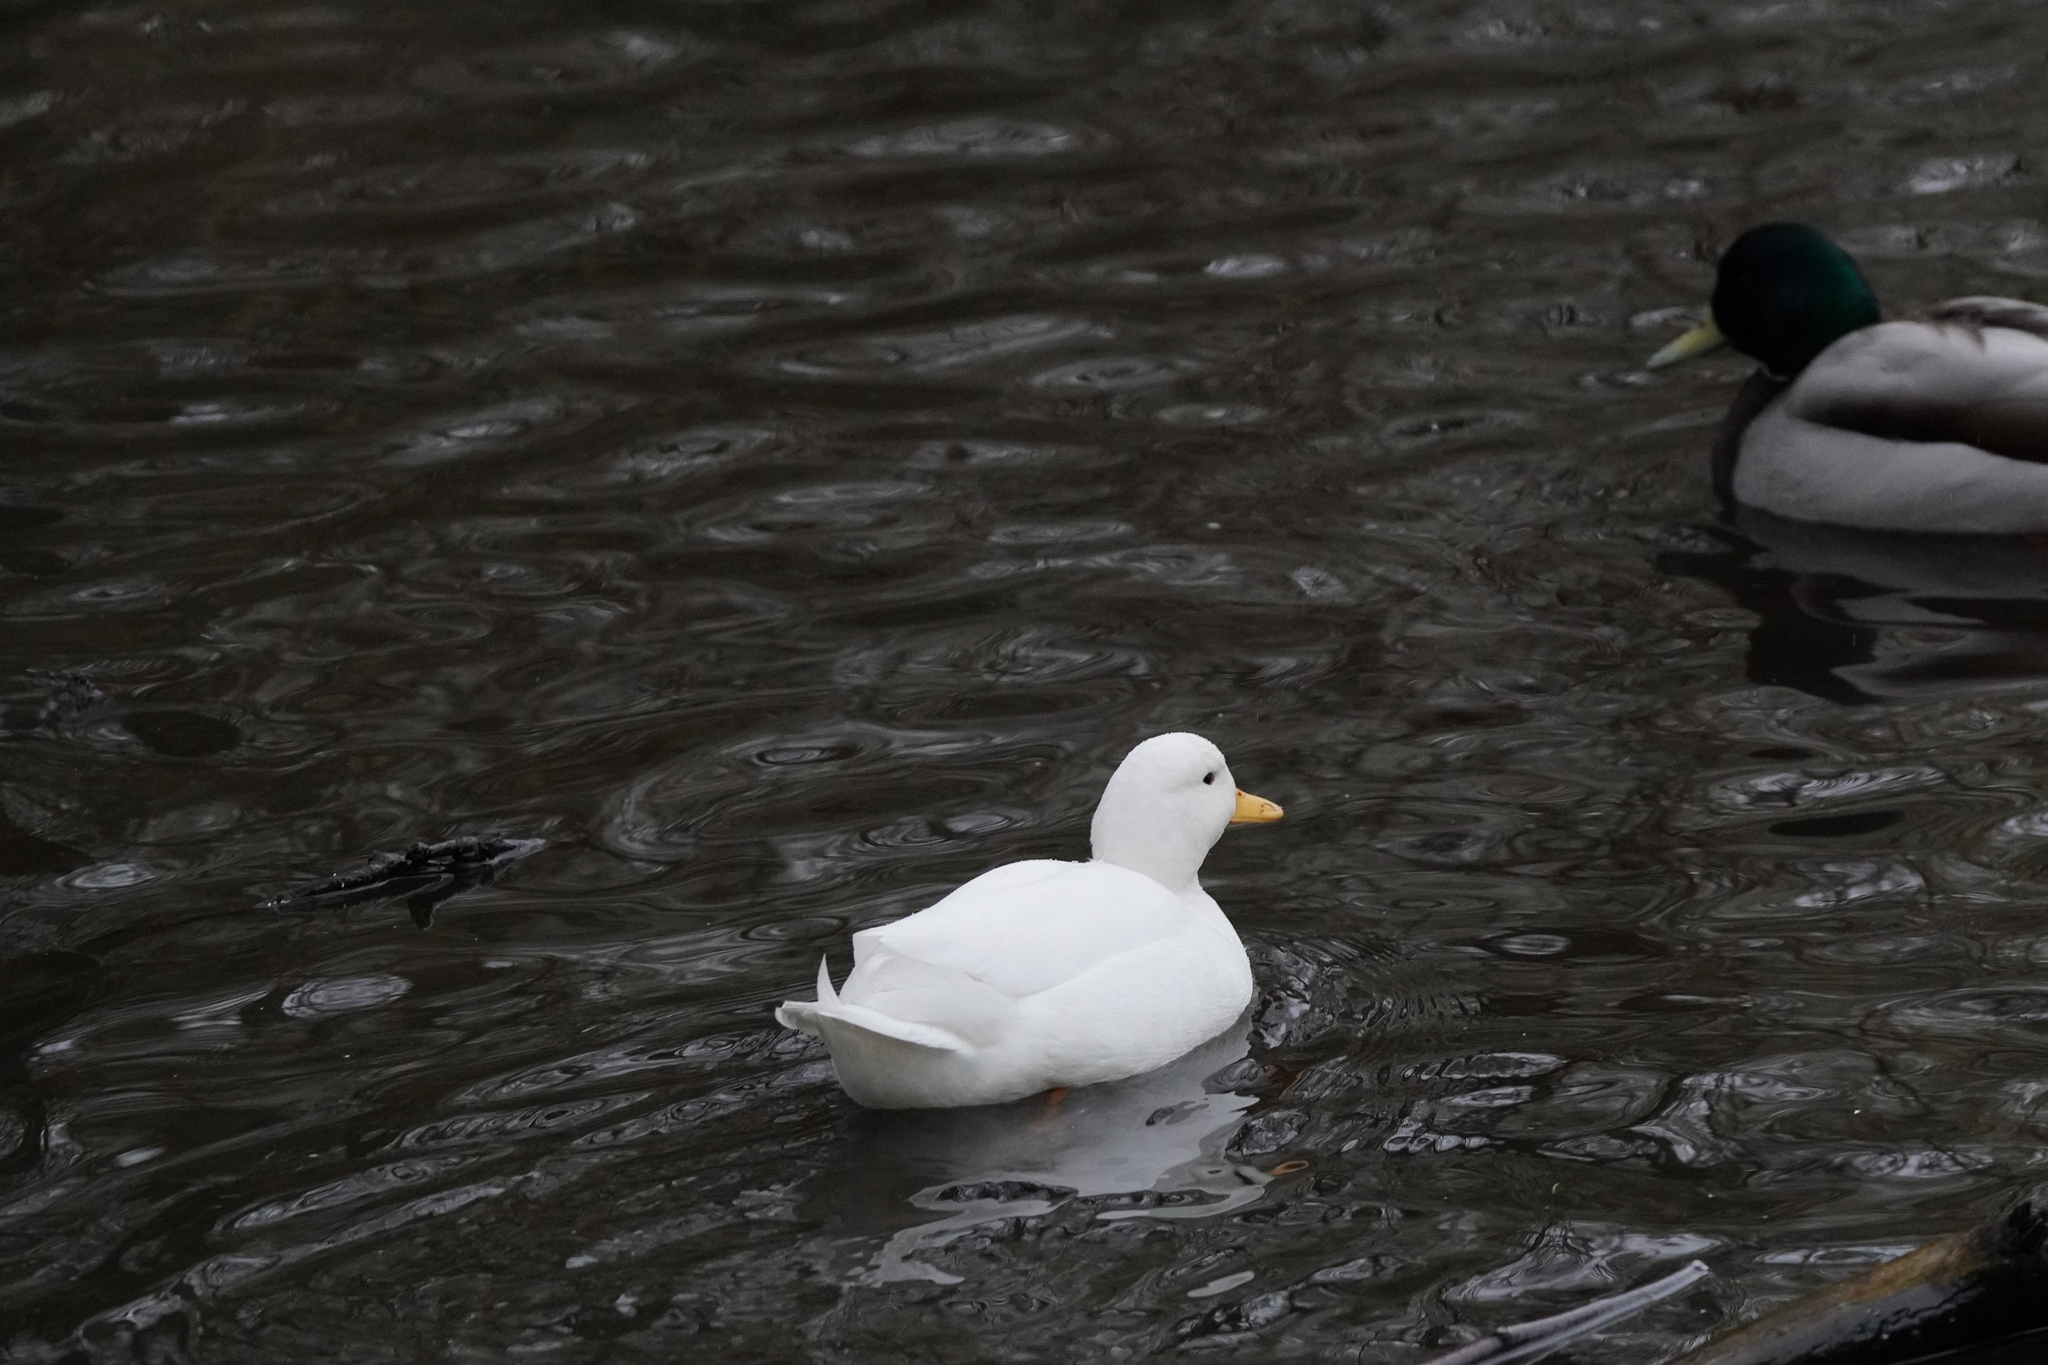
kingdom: Animalia
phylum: Chordata
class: Aves
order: Anseriformes
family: Anatidae
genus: Anas
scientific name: Anas platyrhynchos
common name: Mallard
